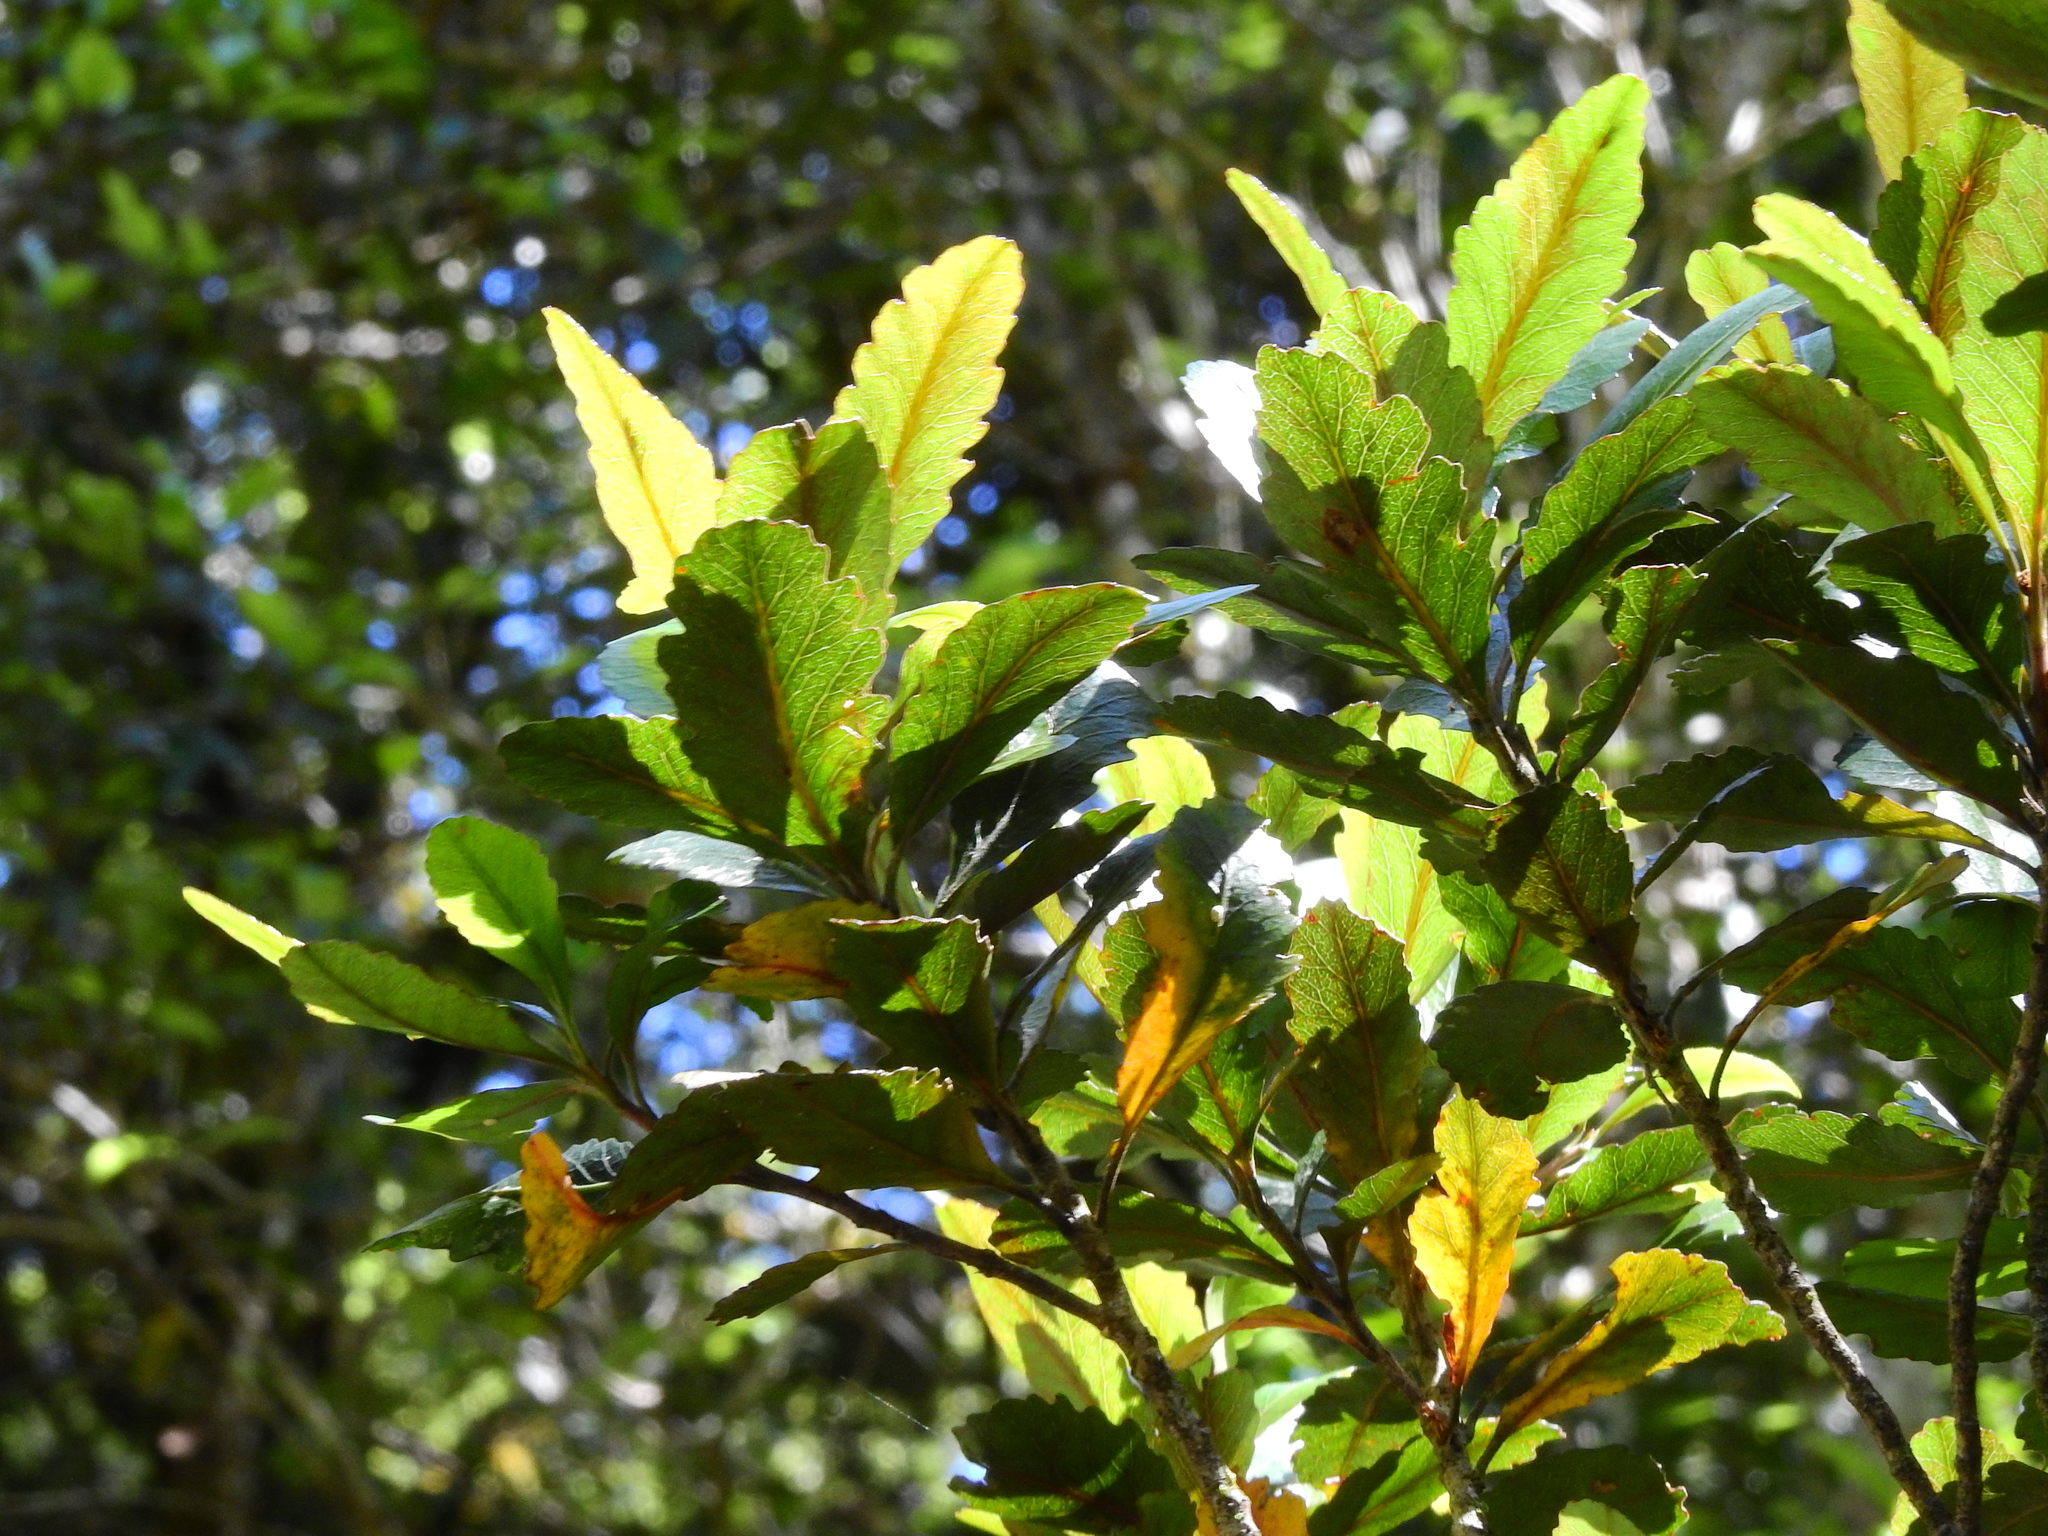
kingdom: Plantae
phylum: Tracheophyta
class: Magnoliopsida
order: Oxalidales
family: Elaeocarpaceae
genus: Elaeocarpus
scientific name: Elaeocarpus hookerianus
